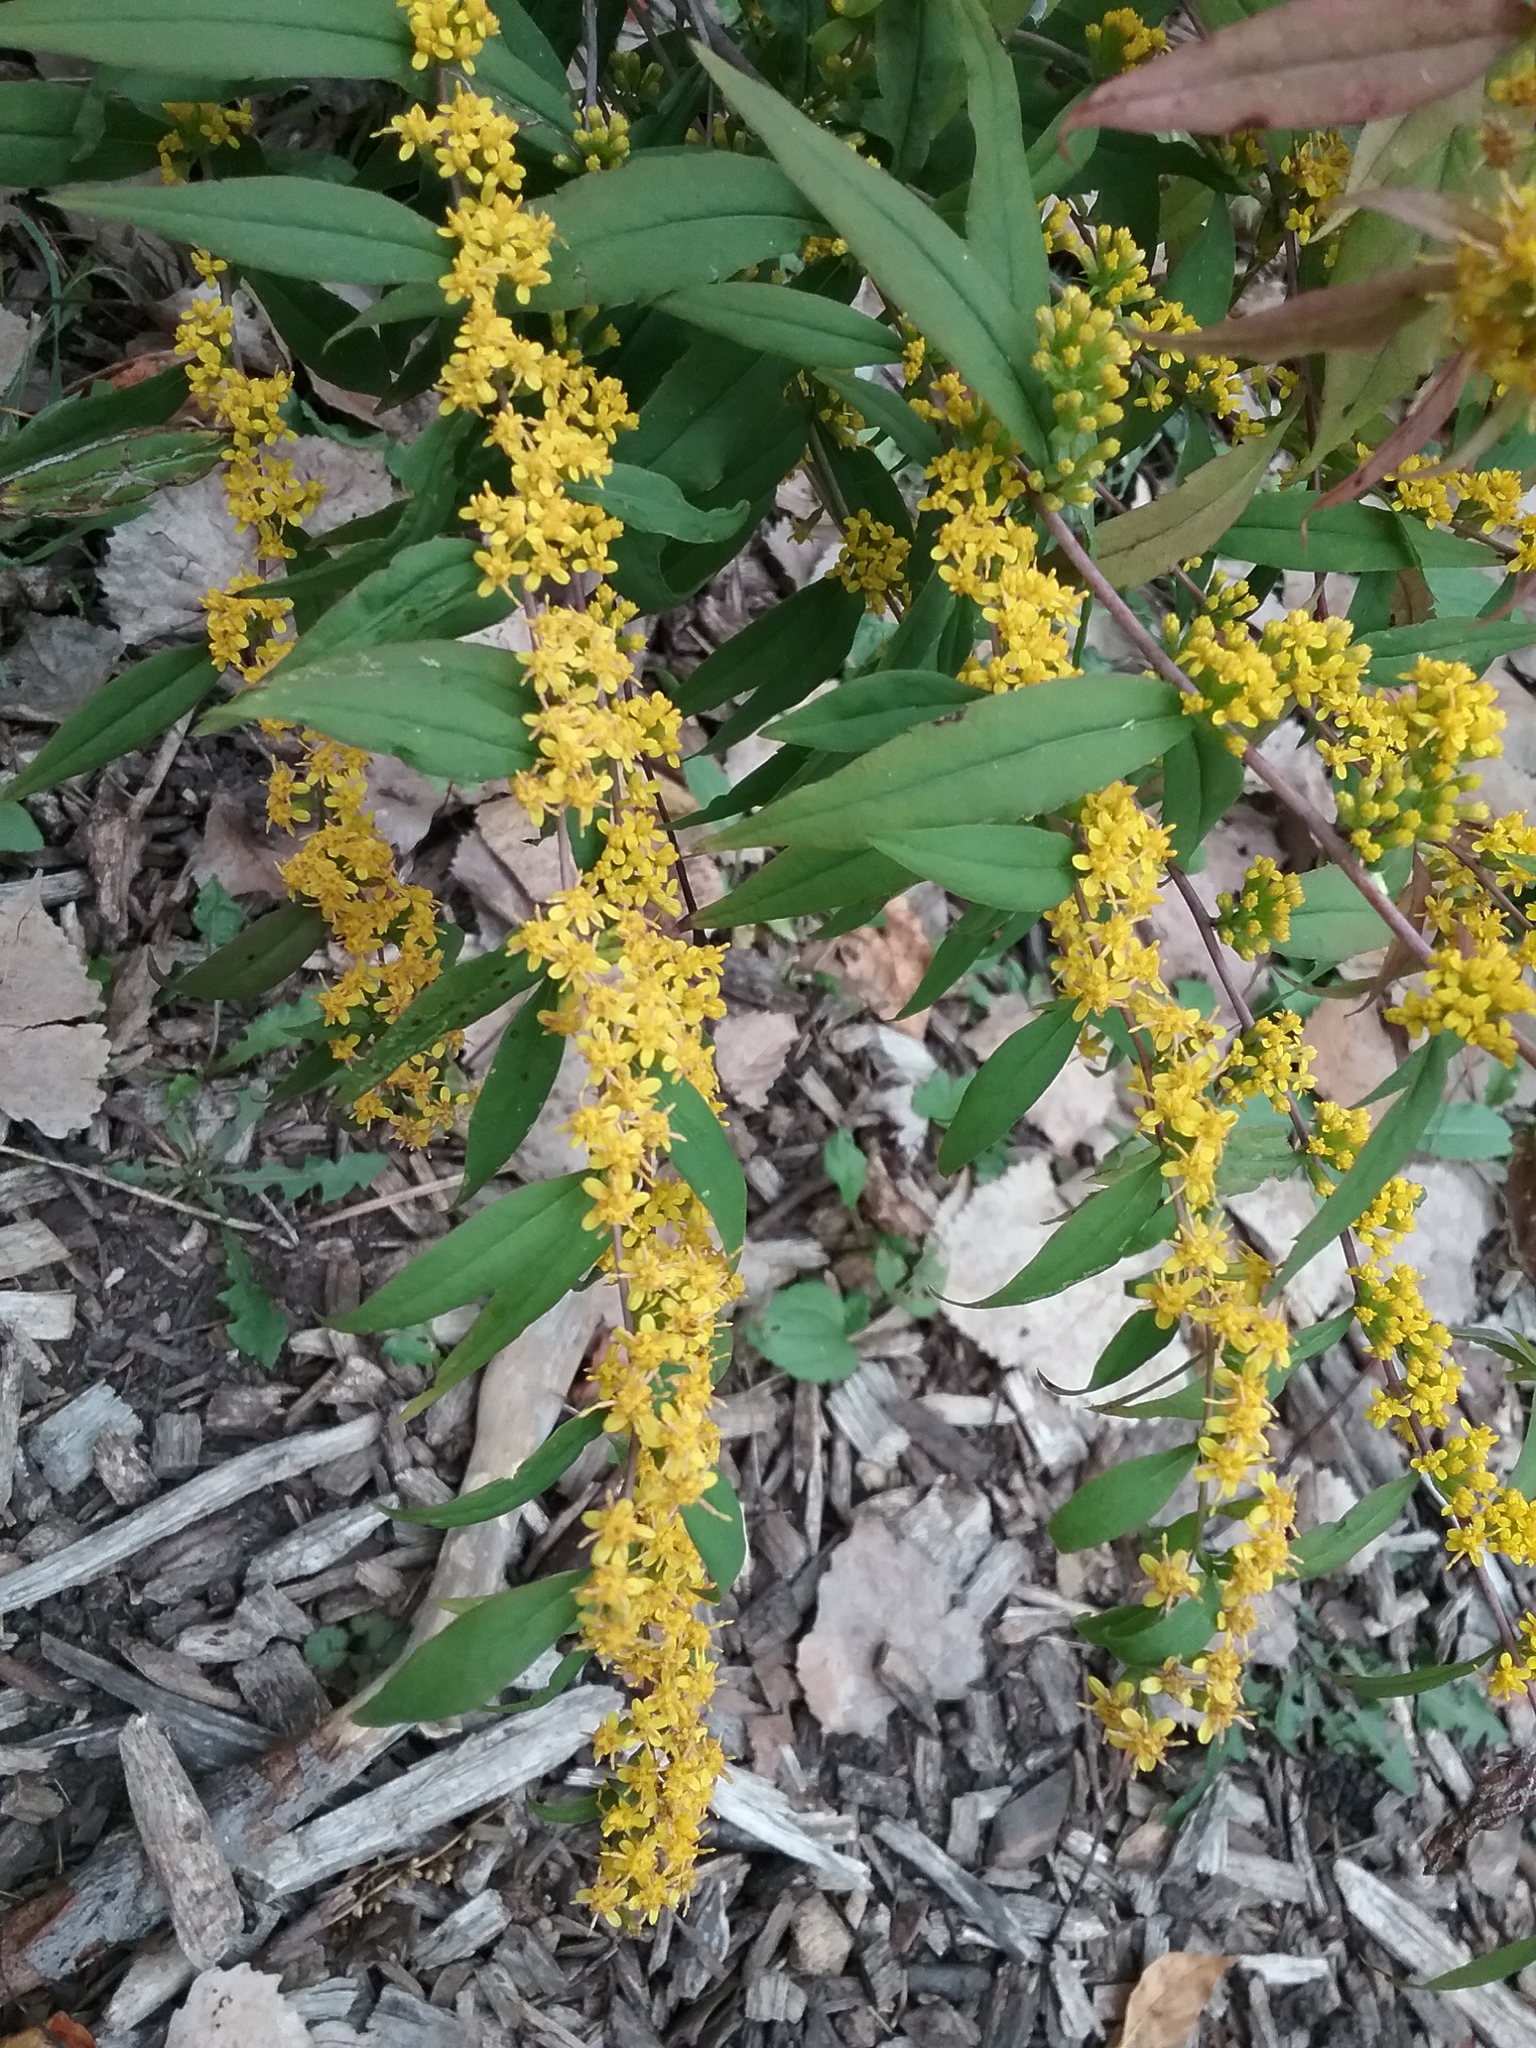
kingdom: Plantae
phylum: Tracheophyta
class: Magnoliopsida
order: Asterales
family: Asteraceae
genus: Solidago
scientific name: Solidago caesia
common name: Woodland goldenrod
